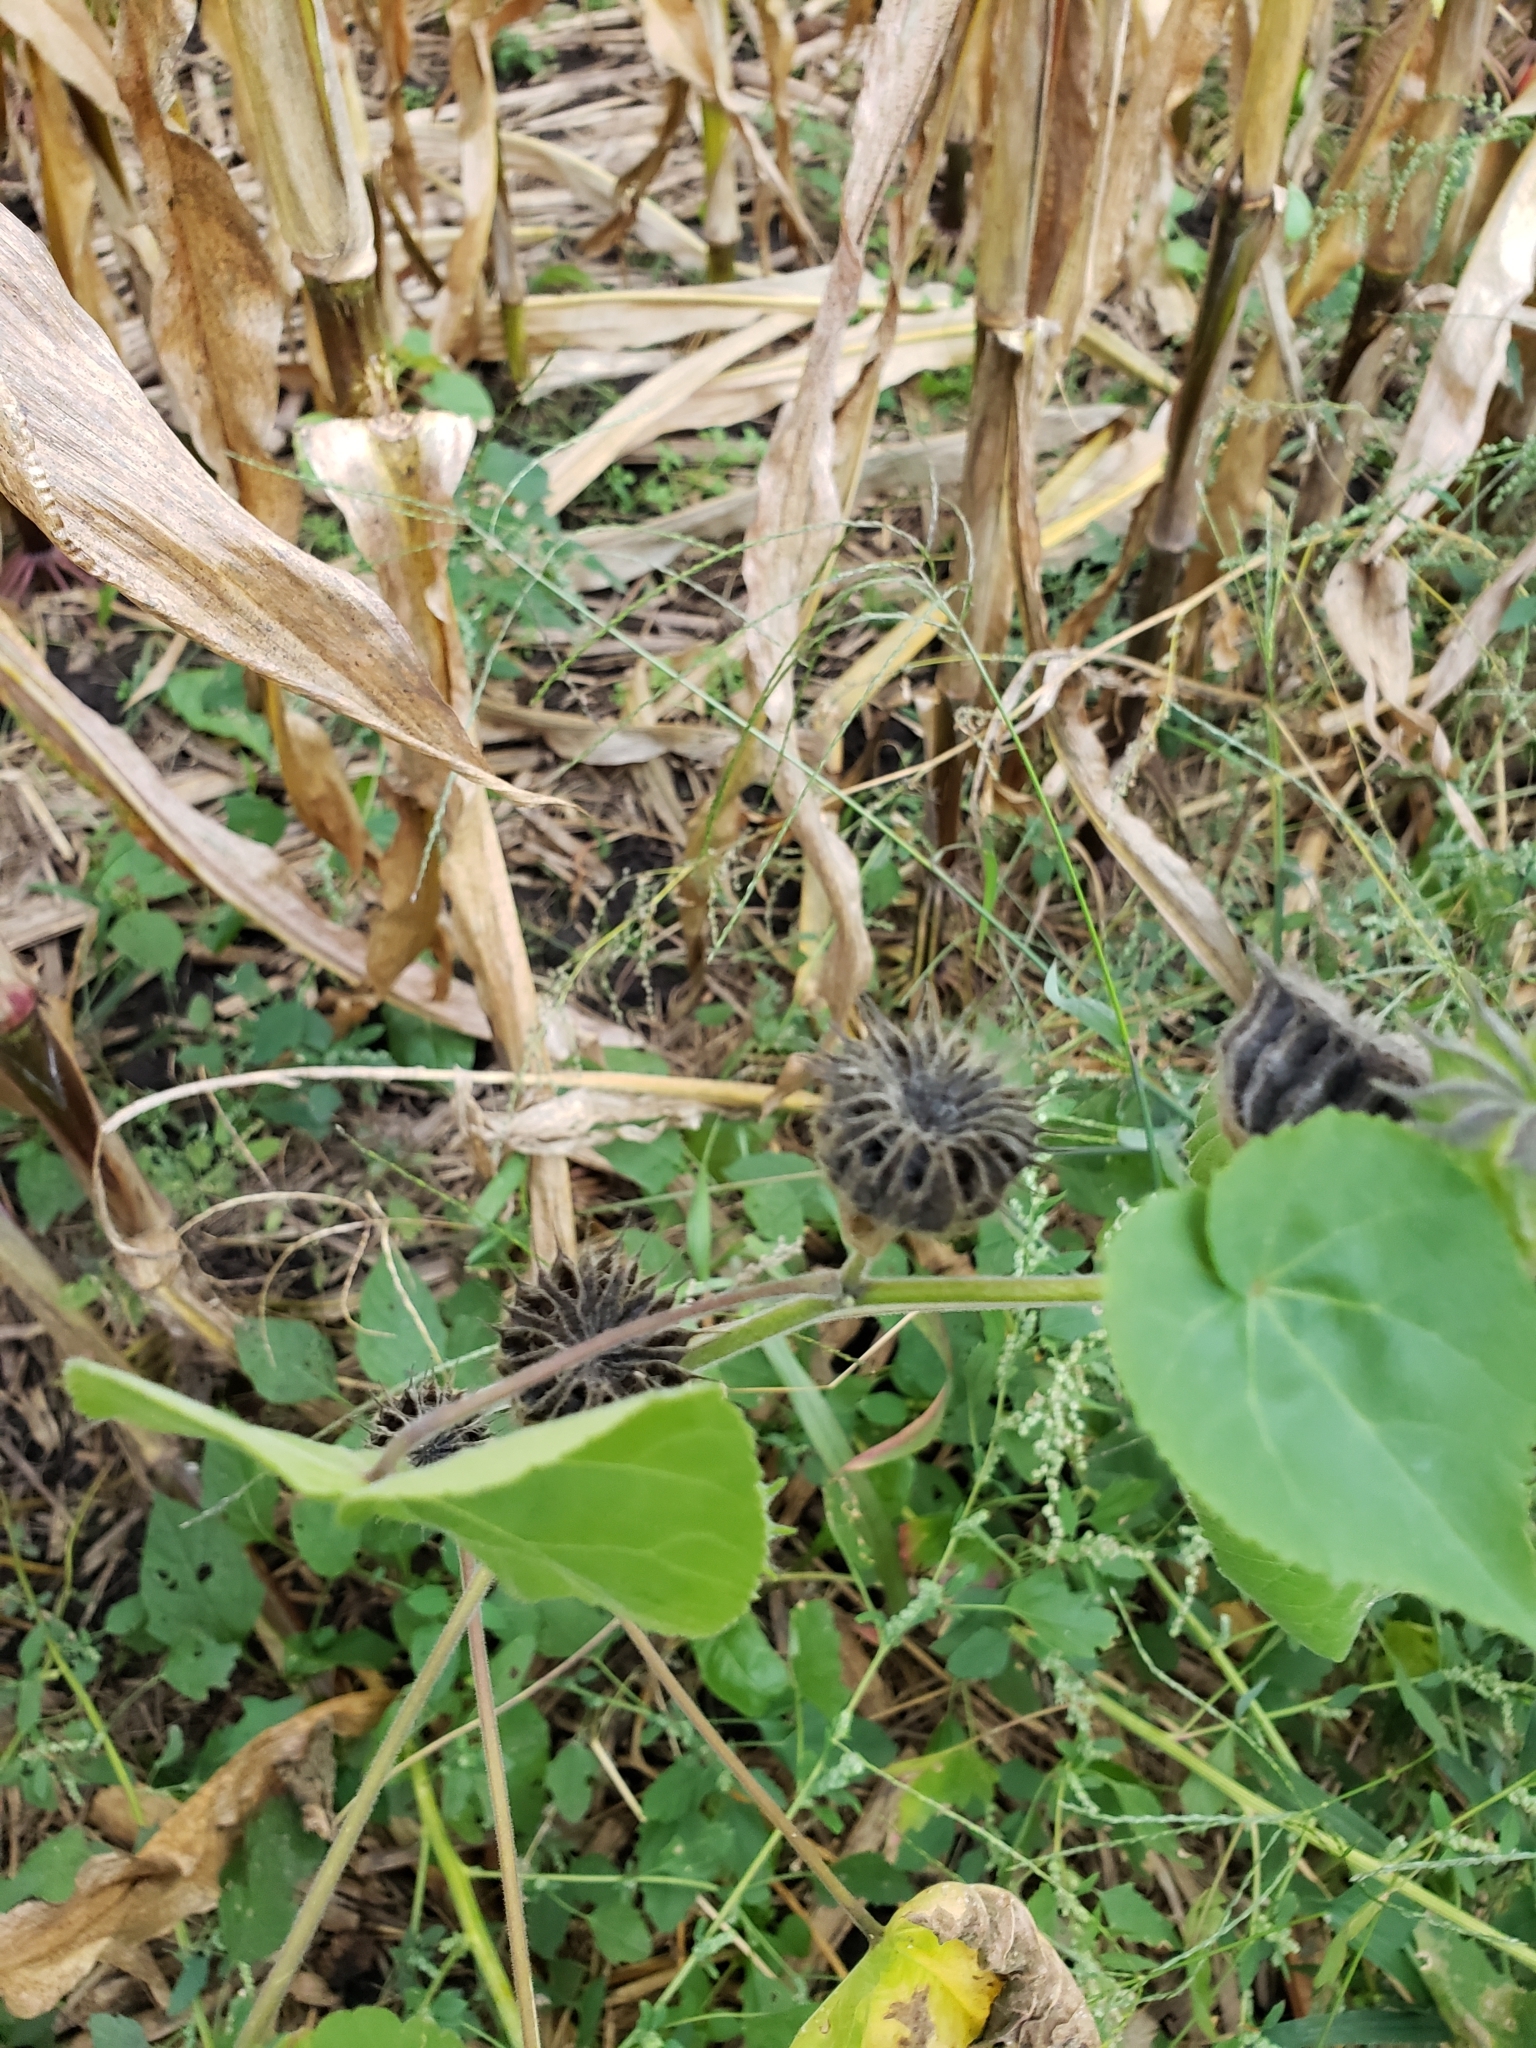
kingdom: Plantae
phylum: Tracheophyta
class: Magnoliopsida
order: Malvales
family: Malvaceae
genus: Abutilon
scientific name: Abutilon theophrasti
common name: Velvetleaf
